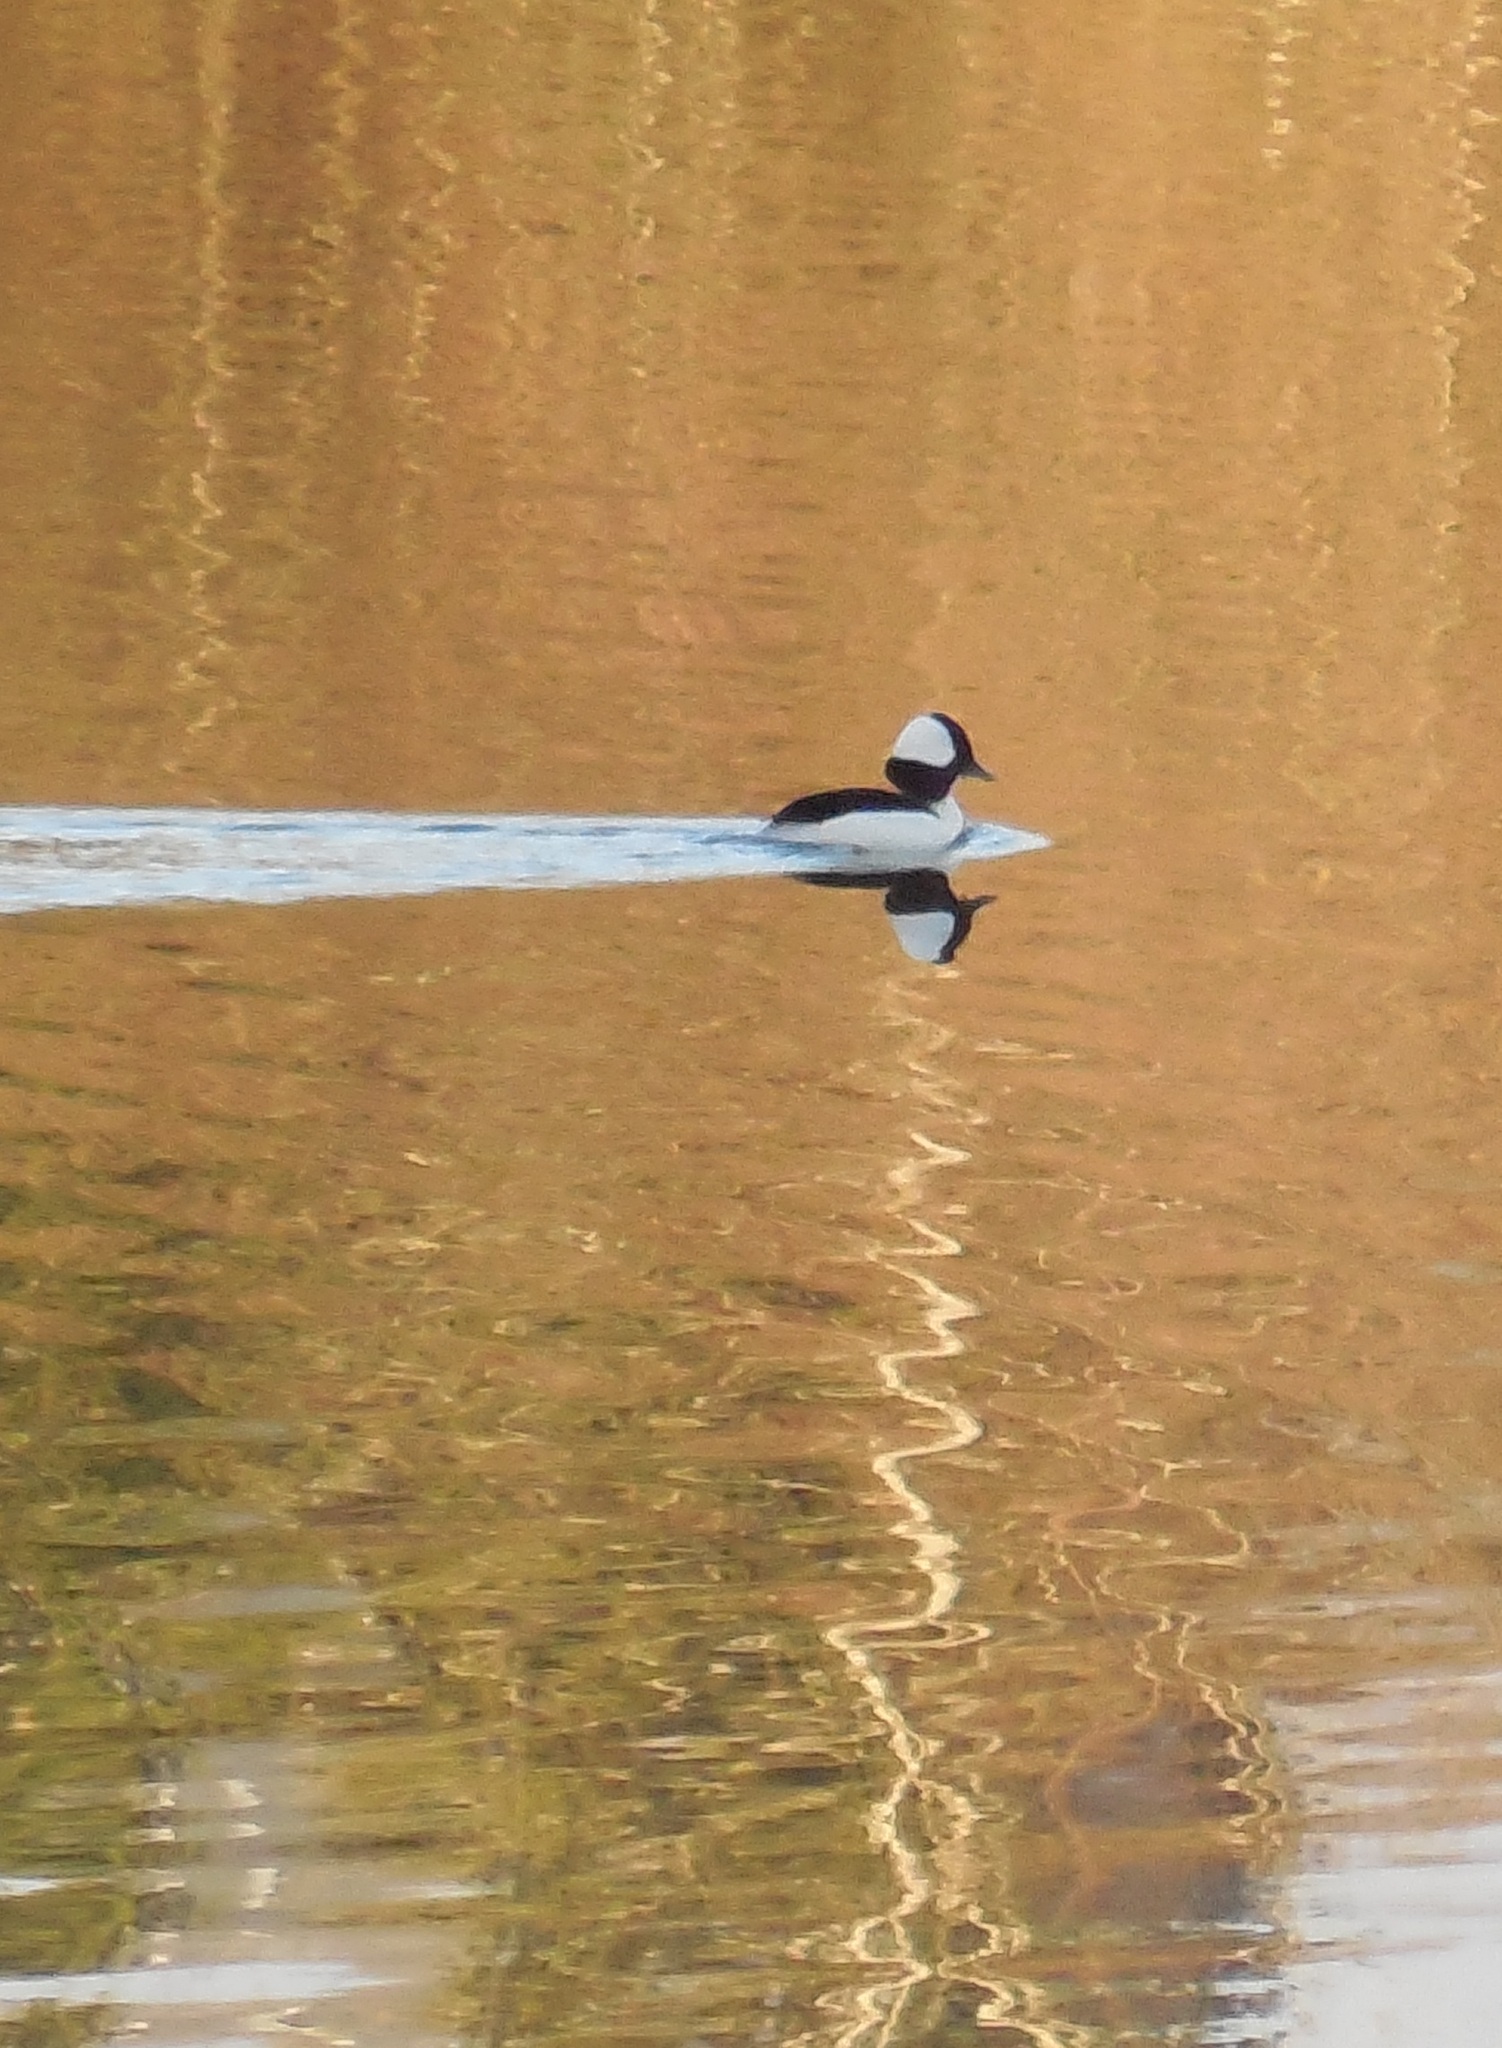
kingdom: Animalia
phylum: Chordata
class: Aves
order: Anseriformes
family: Anatidae
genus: Bucephala
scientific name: Bucephala albeola
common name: Bufflehead
